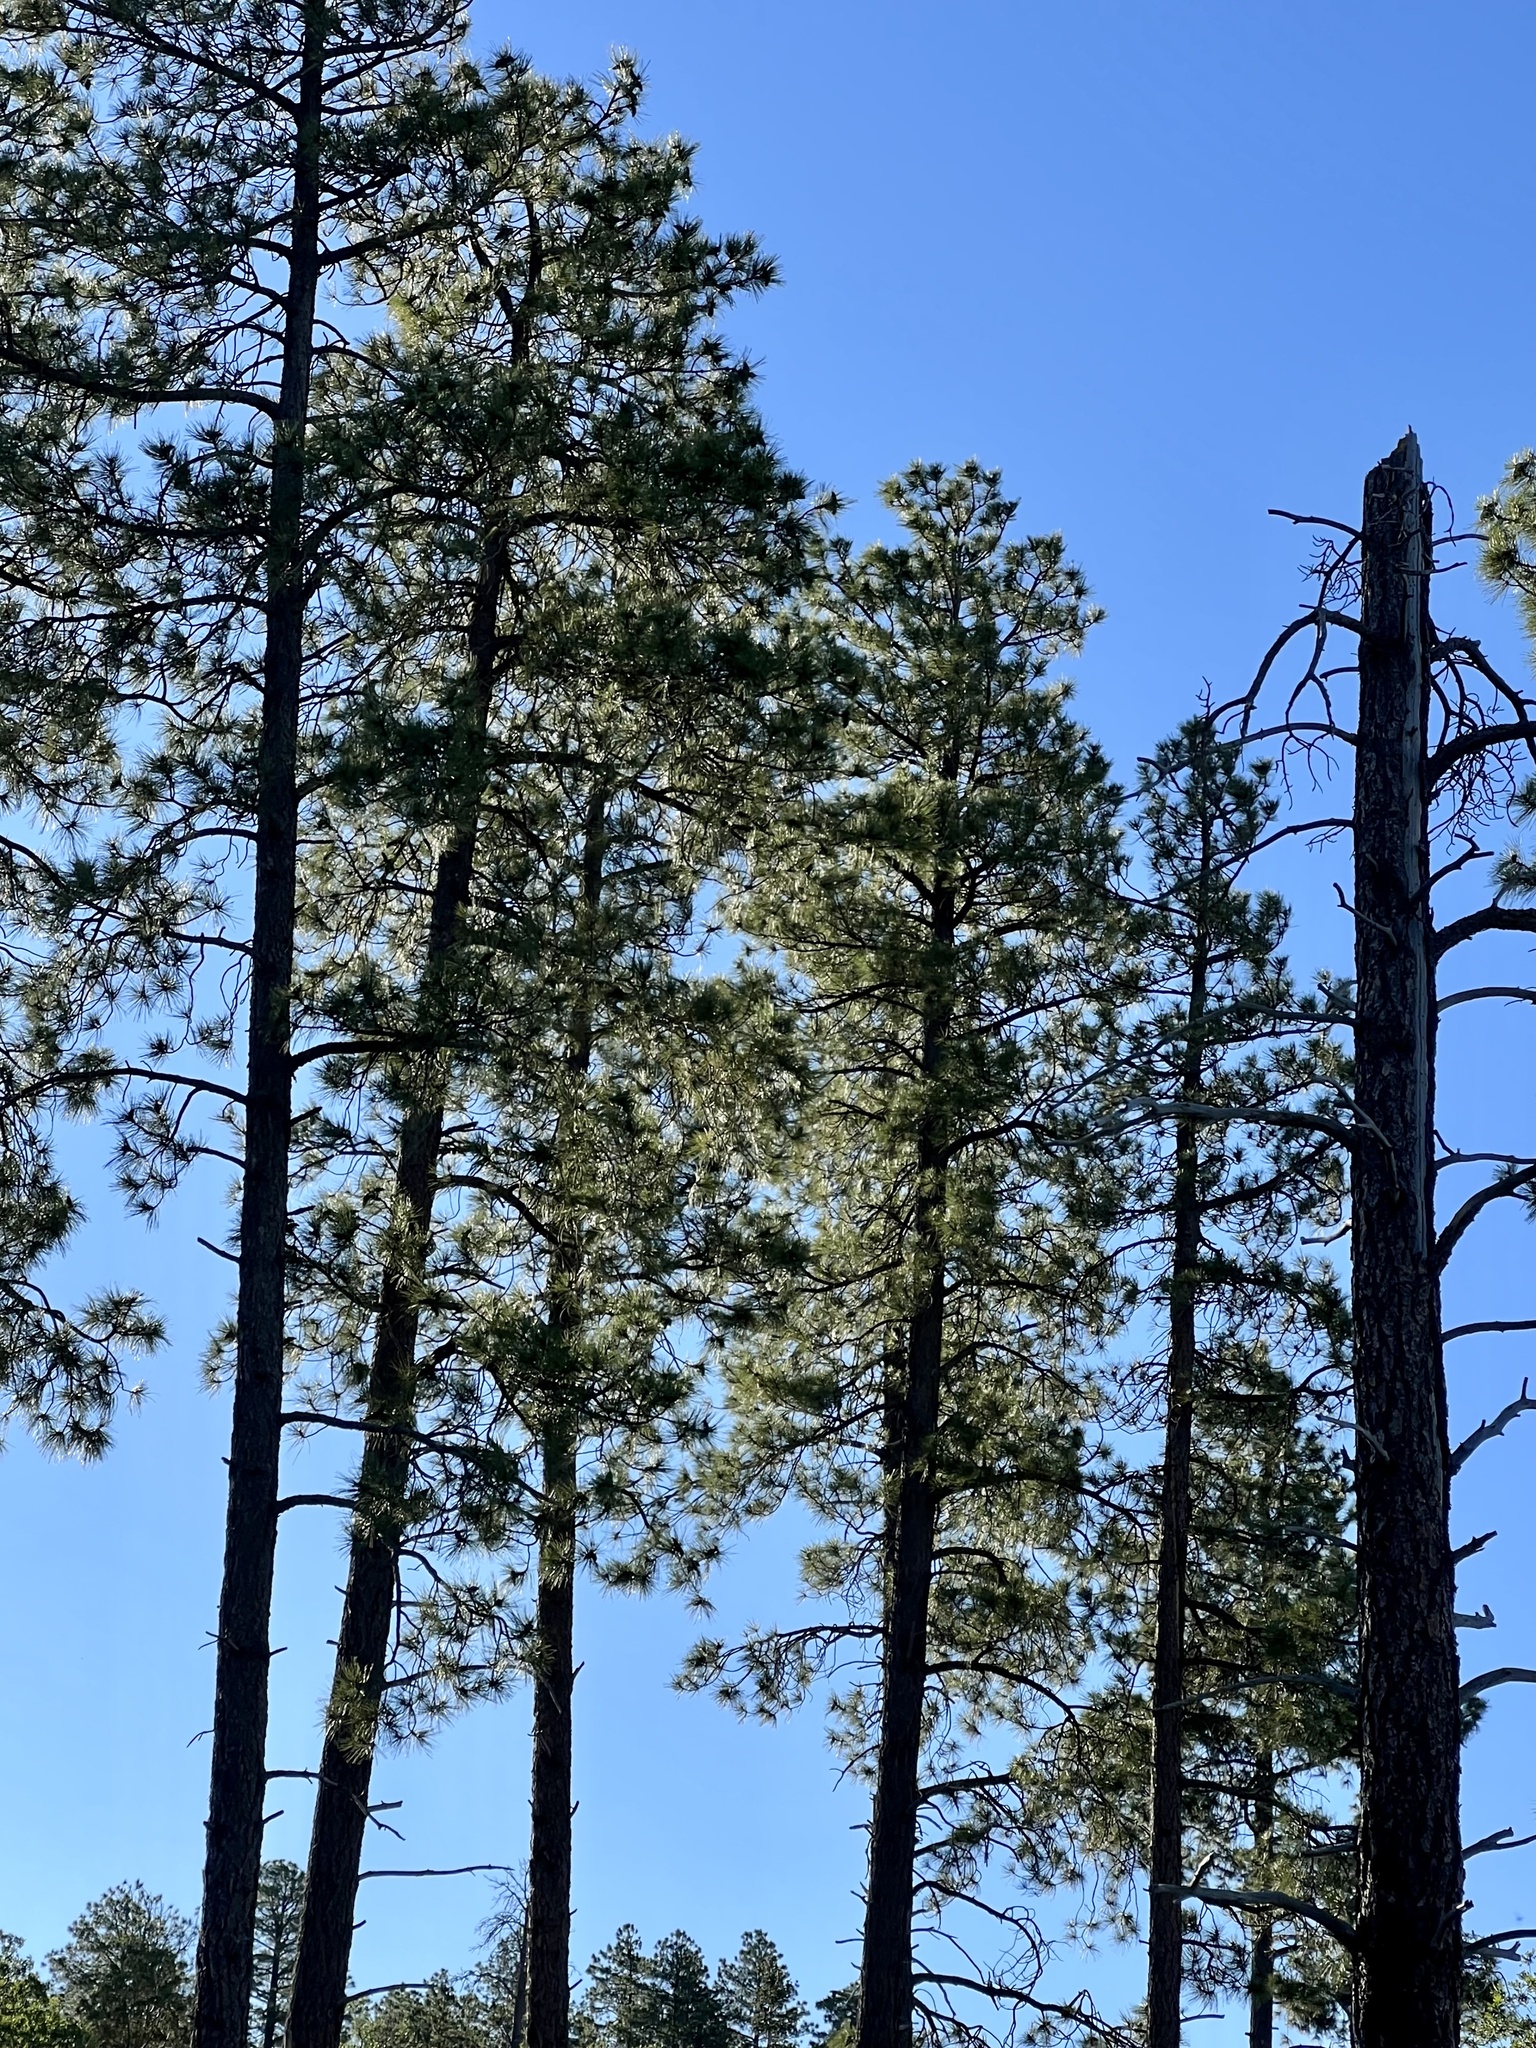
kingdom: Plantae
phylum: Tracheophyta
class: Pinopsida
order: Pinales
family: Pinaceae
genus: Pinus
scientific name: Pinus ponderosa
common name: Western yellow-pine
